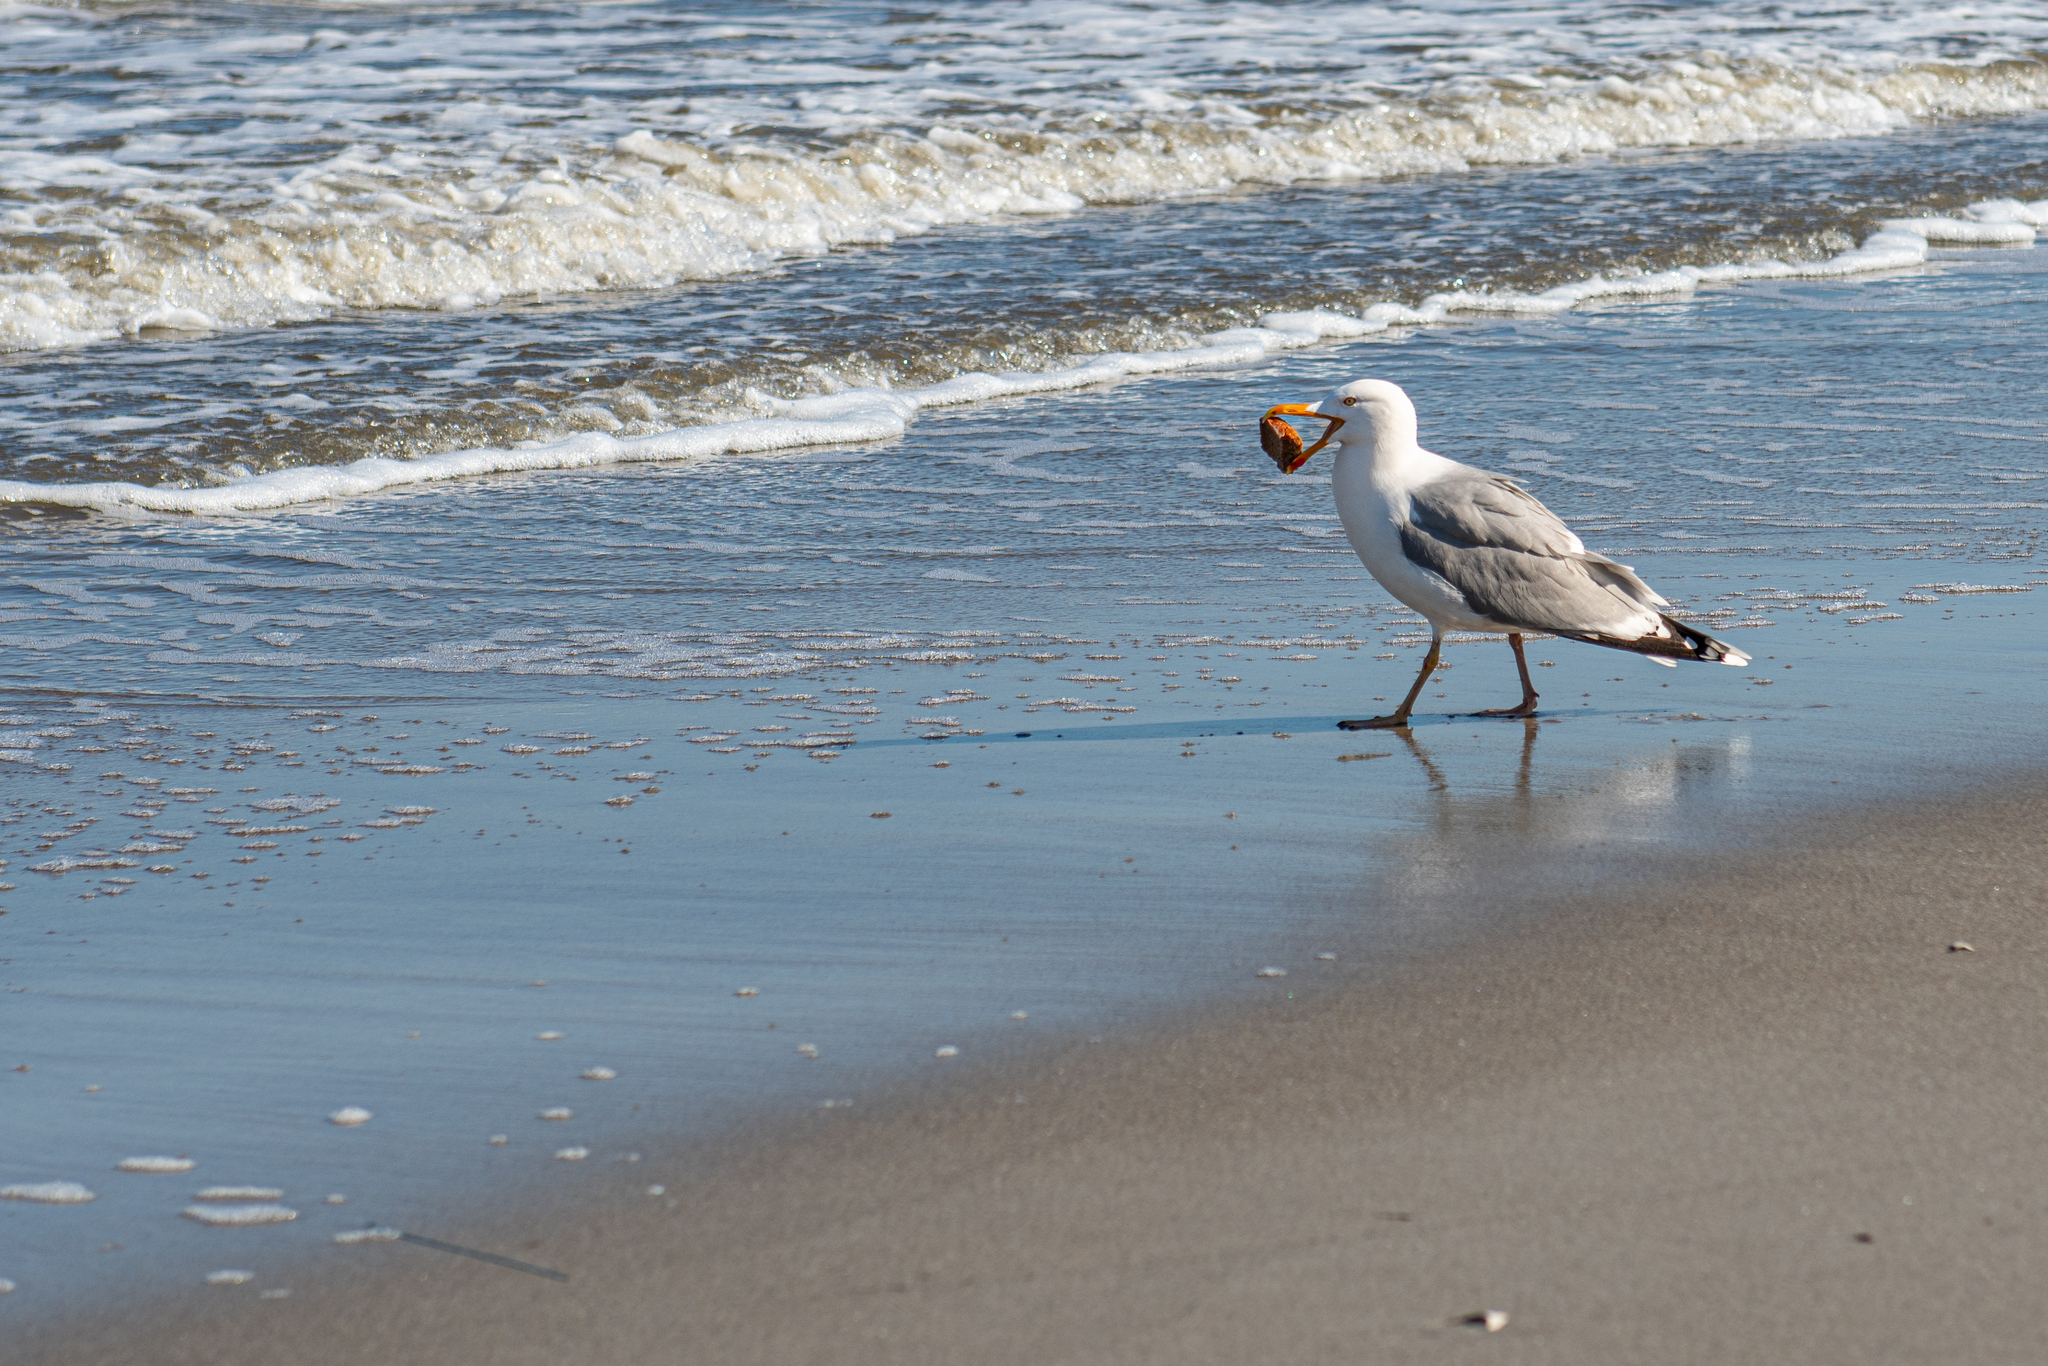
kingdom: Animalia
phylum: Chordata
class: Aves
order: Charadriiformes
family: Laridae
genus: Larus
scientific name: Larus argentatus
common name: Herring gull
